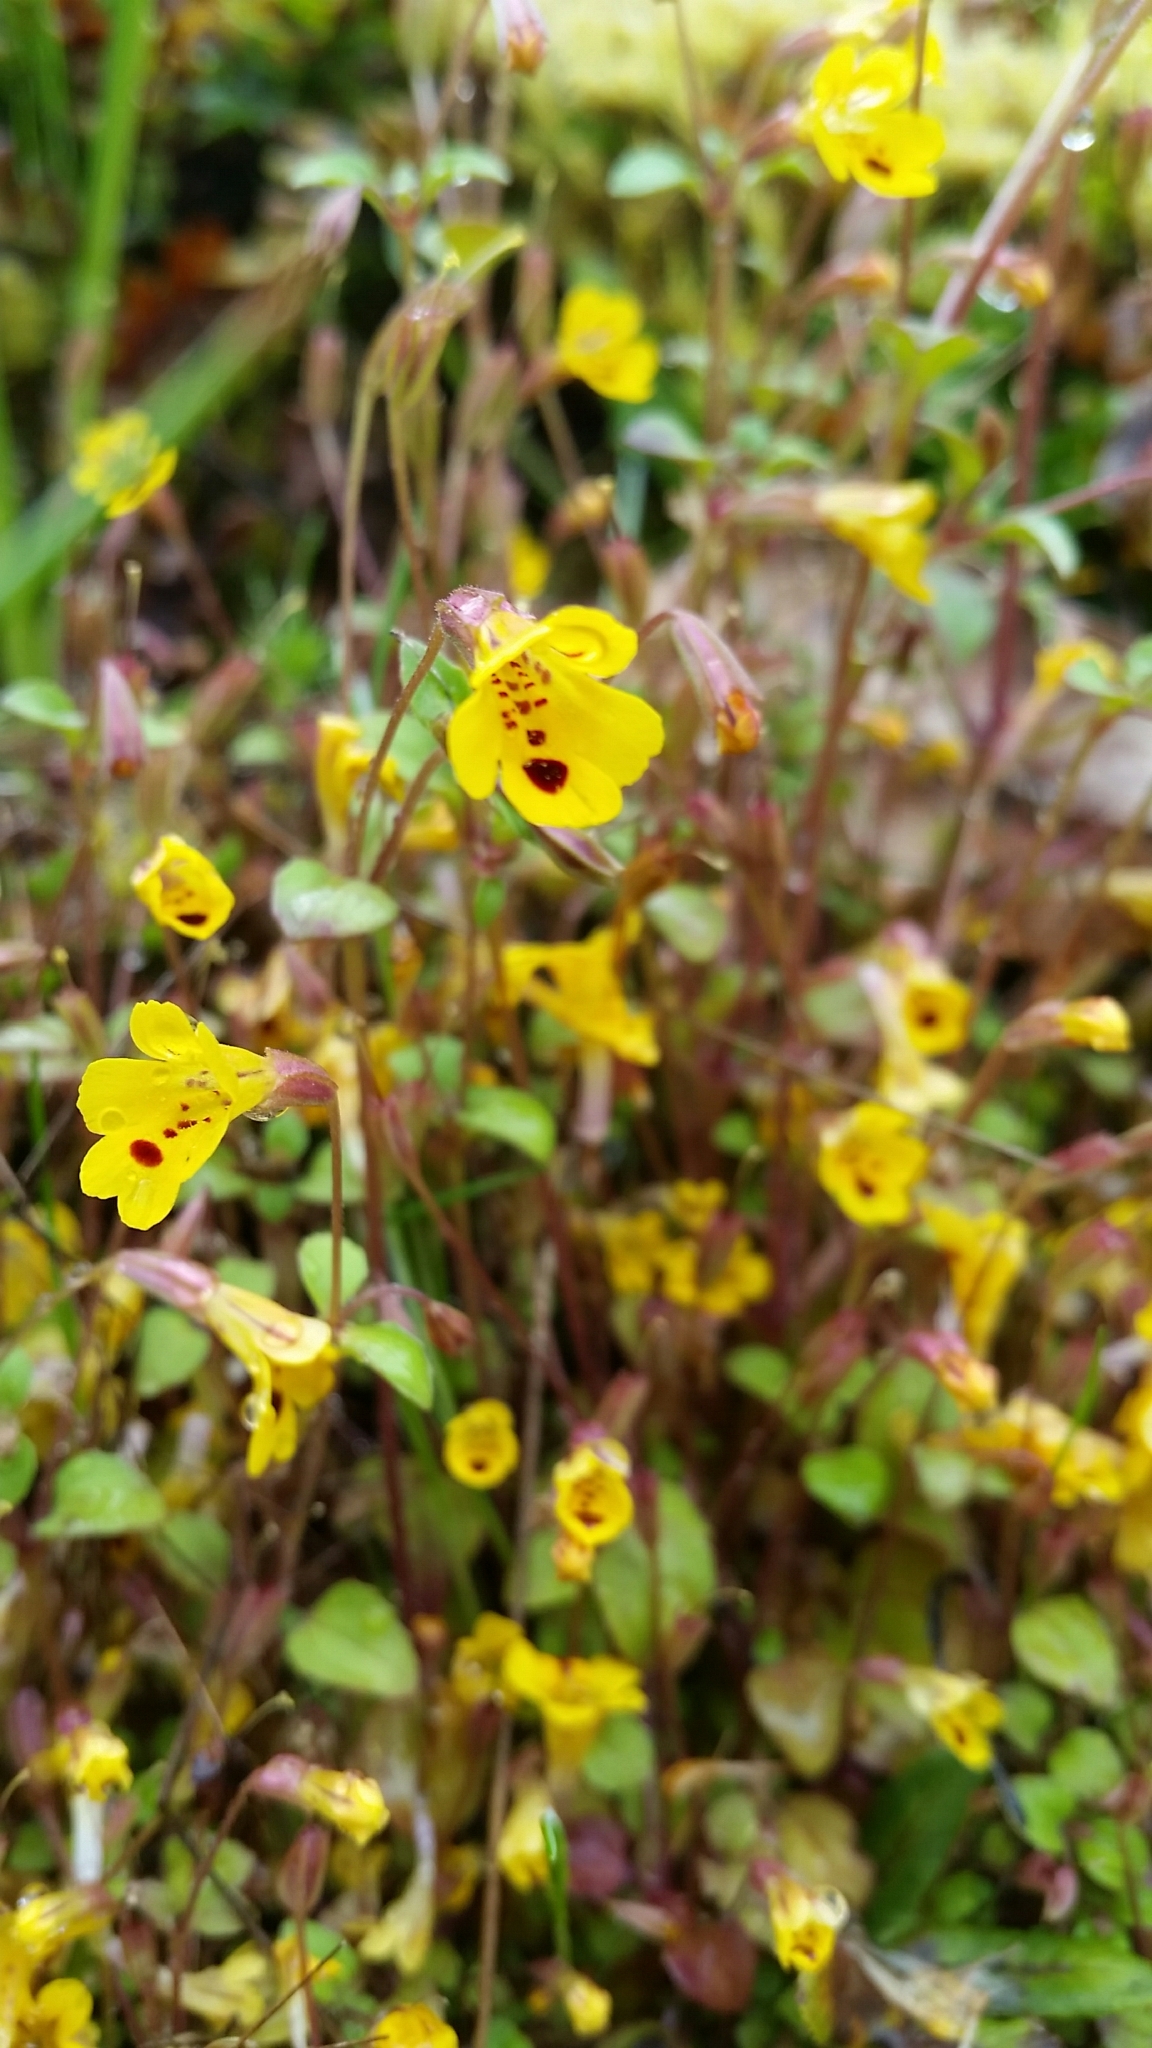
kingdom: Plantae
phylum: Tracheophyta
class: Magnoliopsida
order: Lamiales
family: Phrymaceae
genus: Erythranthe
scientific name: Erythranthe alsinoides
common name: Chickweed monkeyflower
